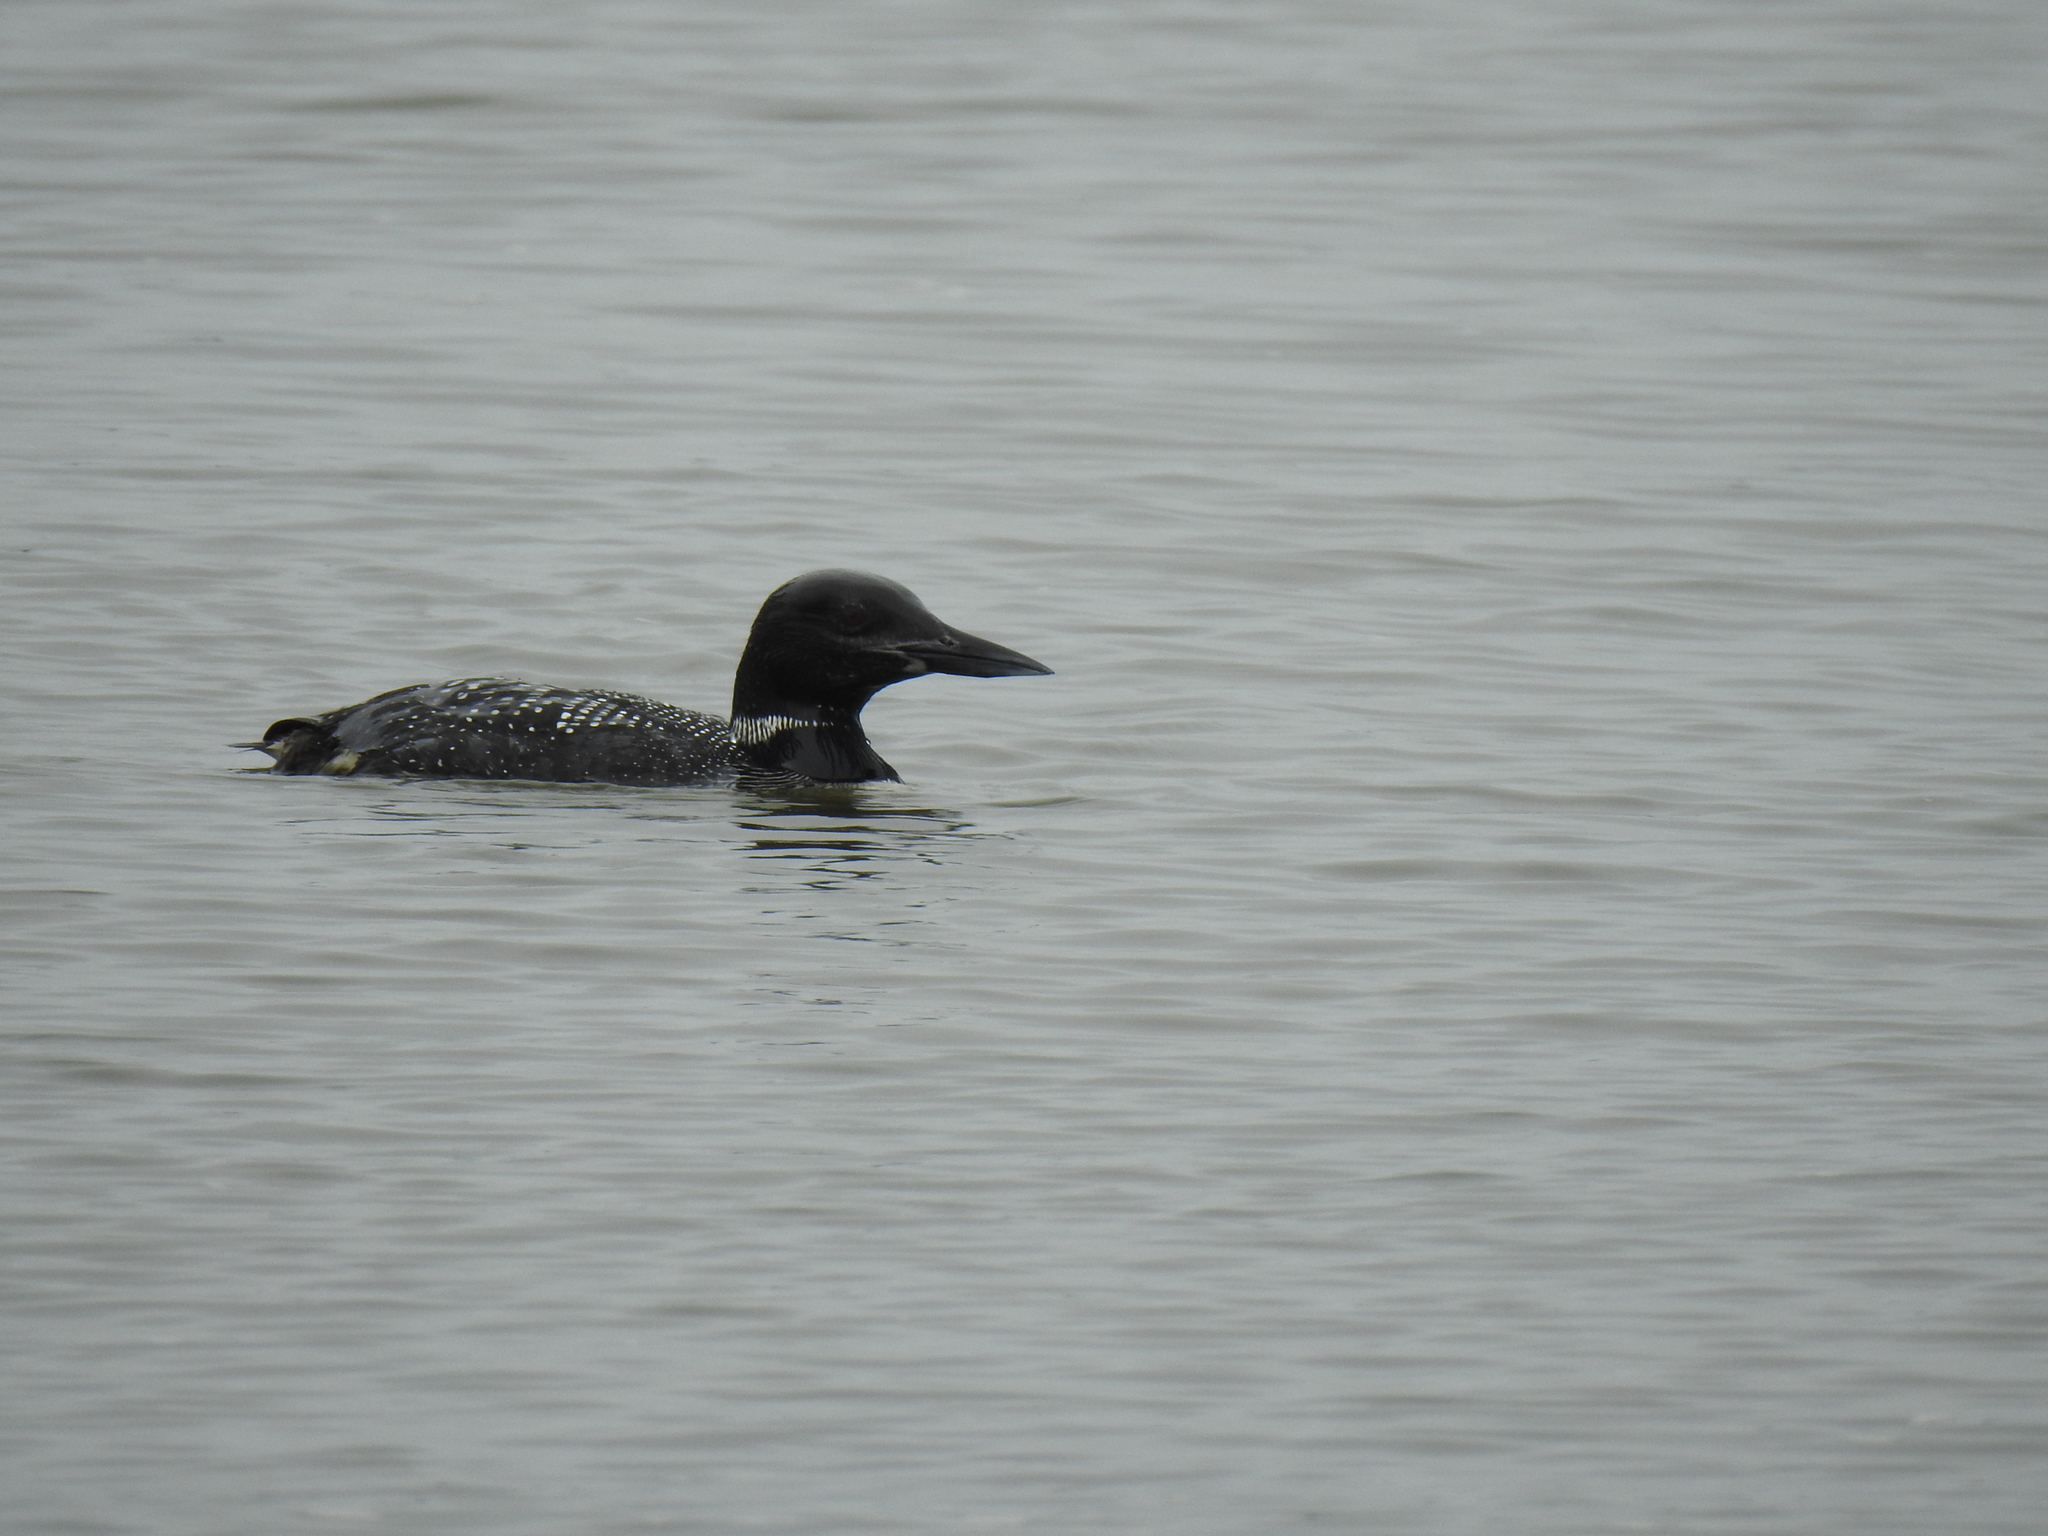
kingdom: Animalia
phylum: Chordata
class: Aves
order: Gaviiformes
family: Gaviidae
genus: Gavia
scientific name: Gavia immer
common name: Common loon
